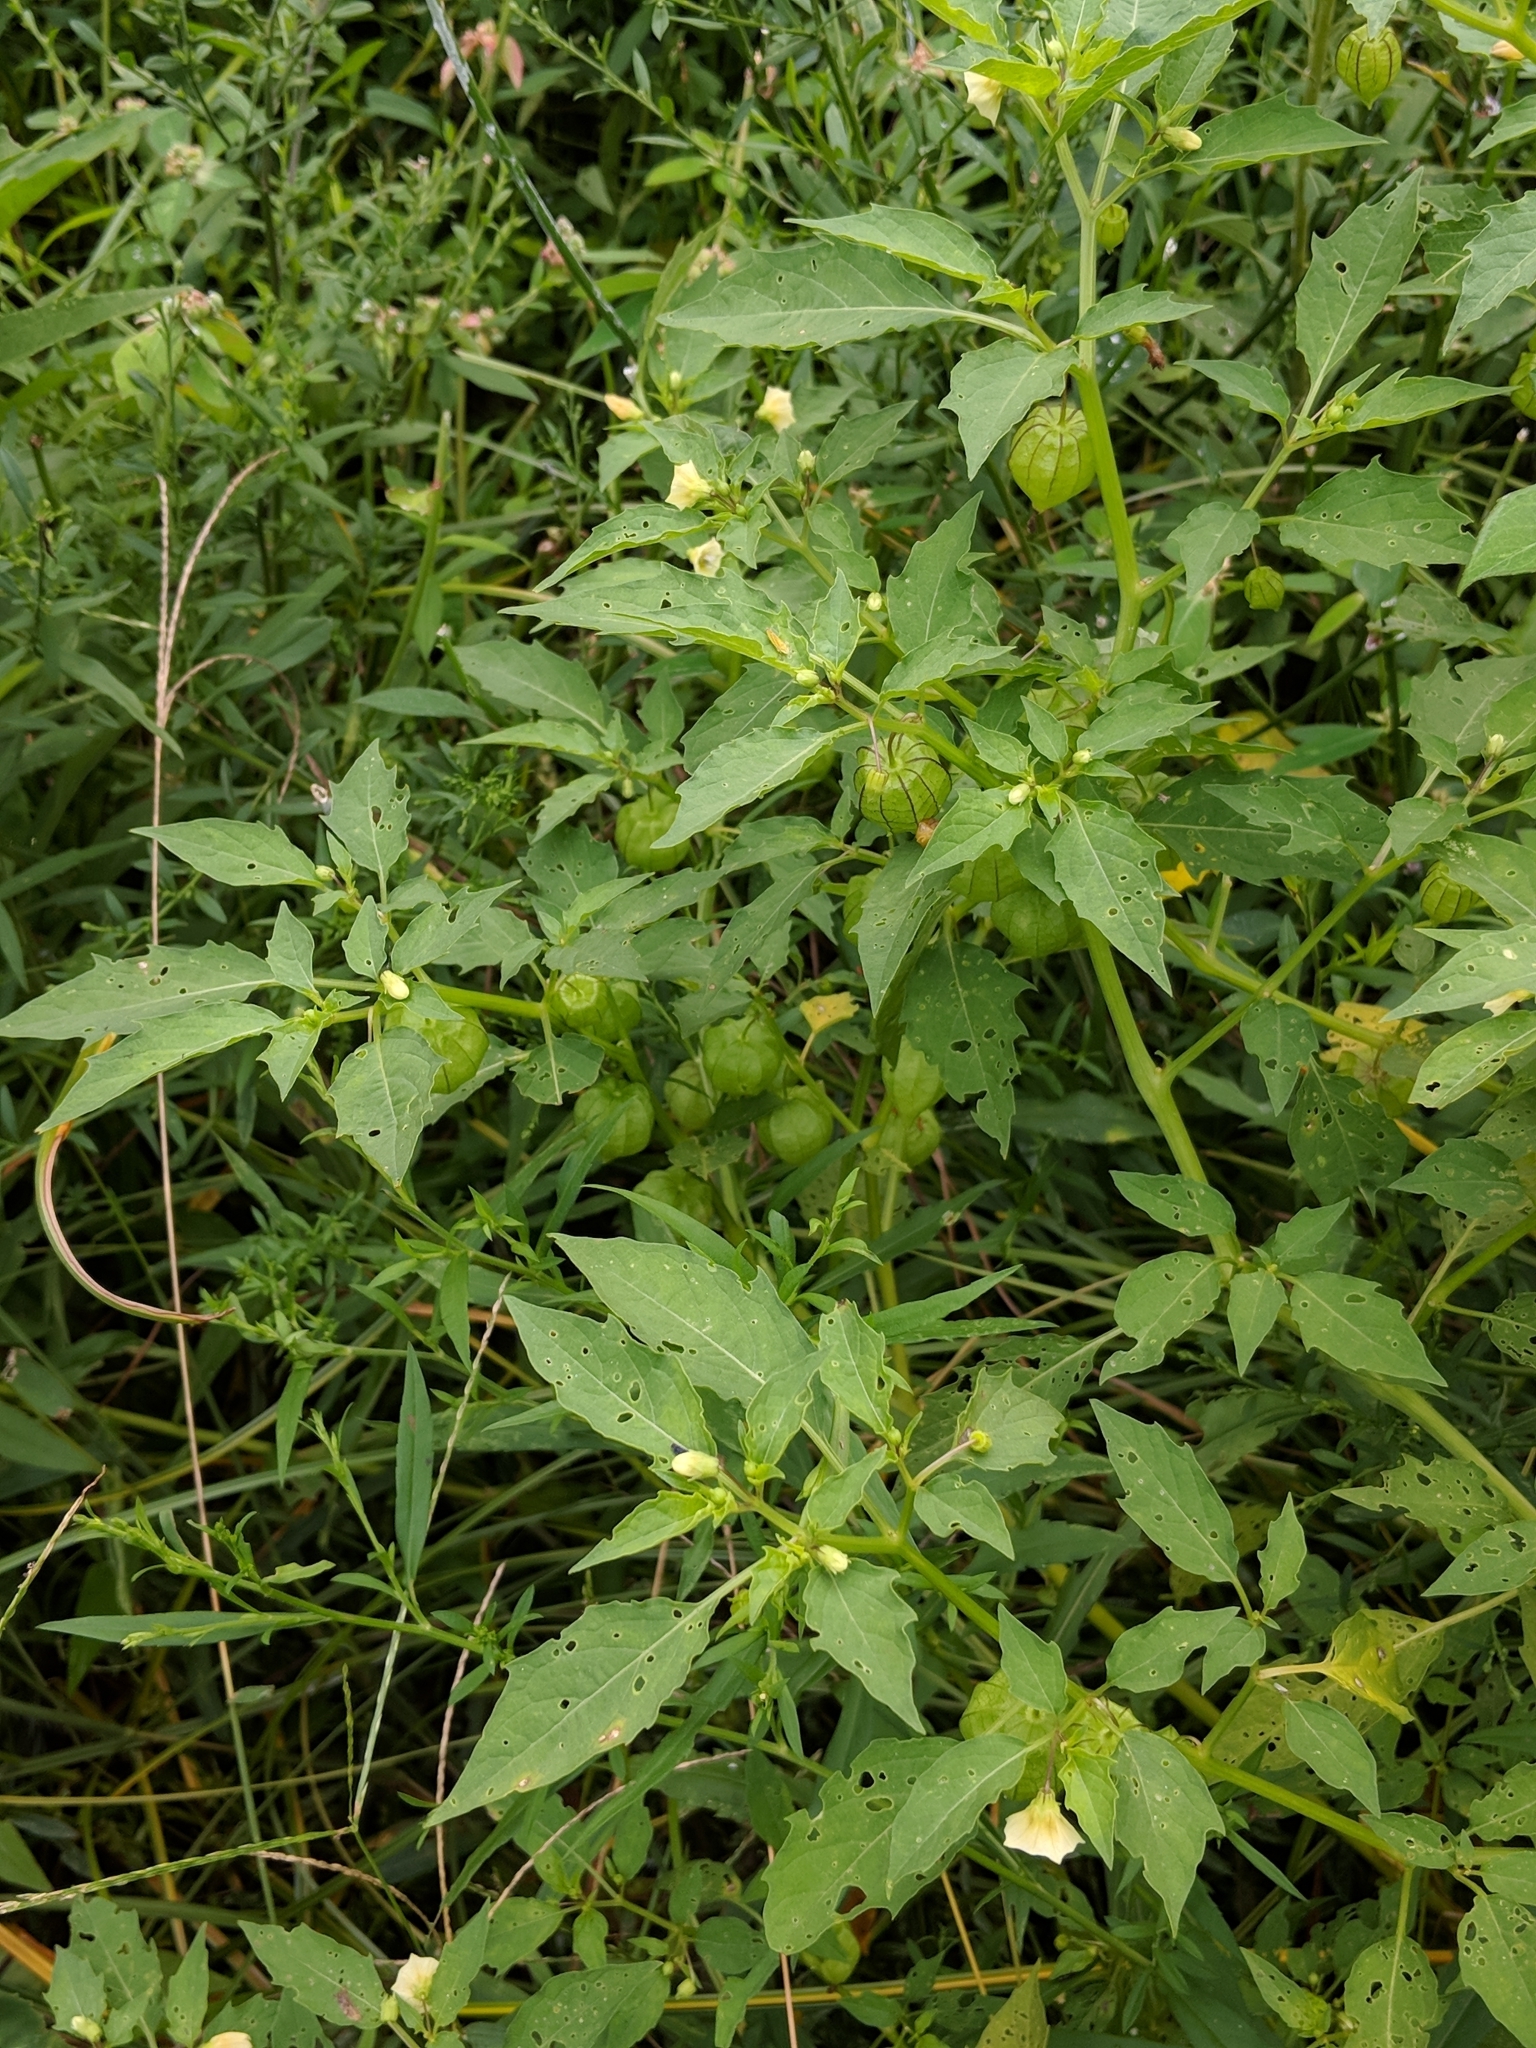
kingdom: Plantae
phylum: Tracheophyta
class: Magnoliopsida
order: Solanales
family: Solanaceae
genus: Physalis
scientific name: Physalis angulata
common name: Angular winter-cherry
